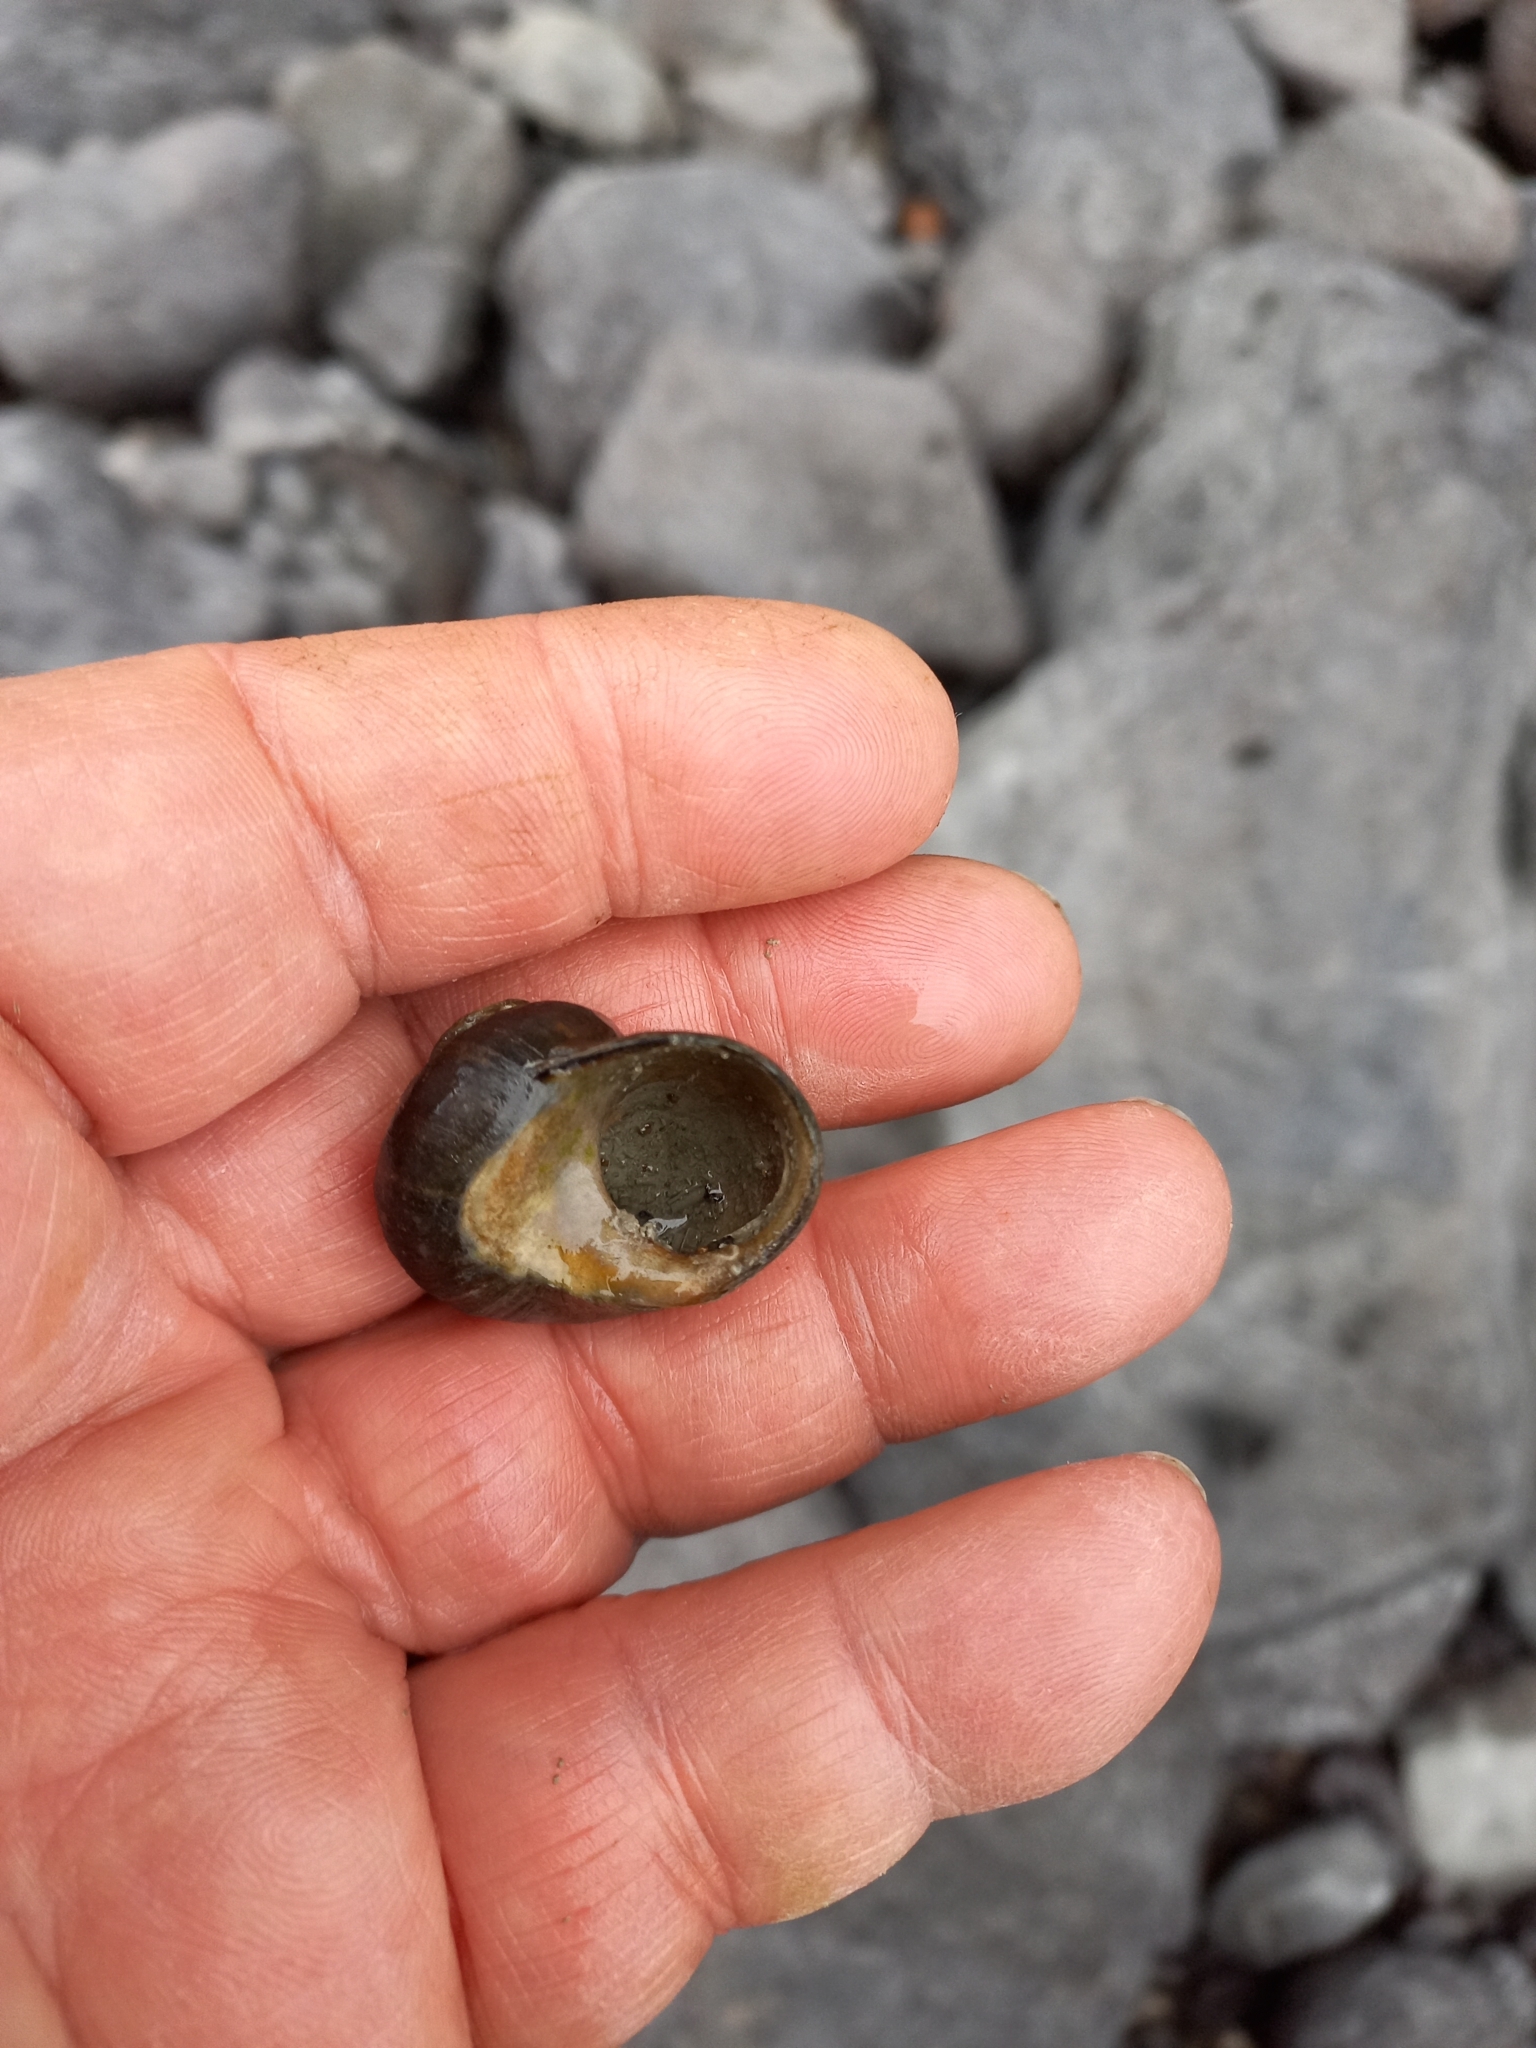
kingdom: Animalia
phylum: Mollusca
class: Gastropoda
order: Trochida
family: Trochidae
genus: Diloma
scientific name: Diloma aethiops
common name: Scorched monodont
